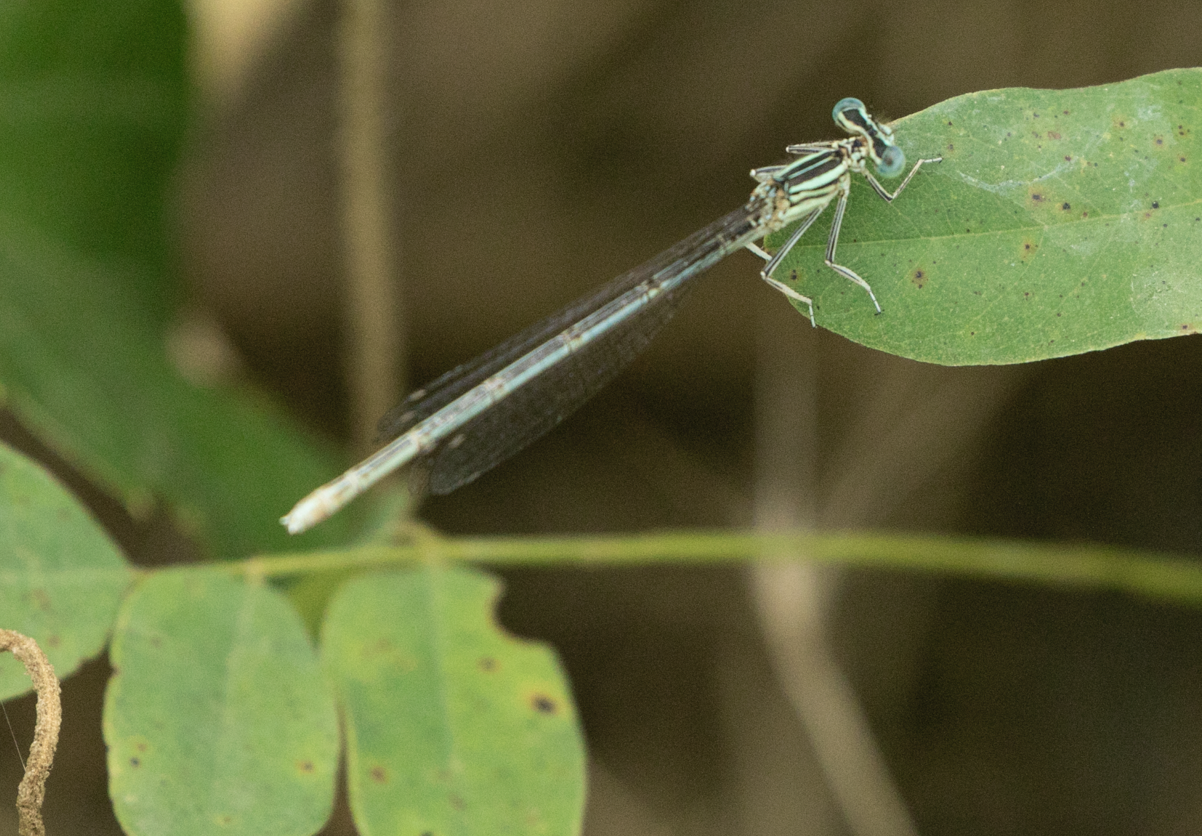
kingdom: Animalia
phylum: Arthropoda
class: Insecta
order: Odonata
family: Platycnemididae
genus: Platycnemis
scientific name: Platycnemis pennipes
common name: White-legged damselfly
